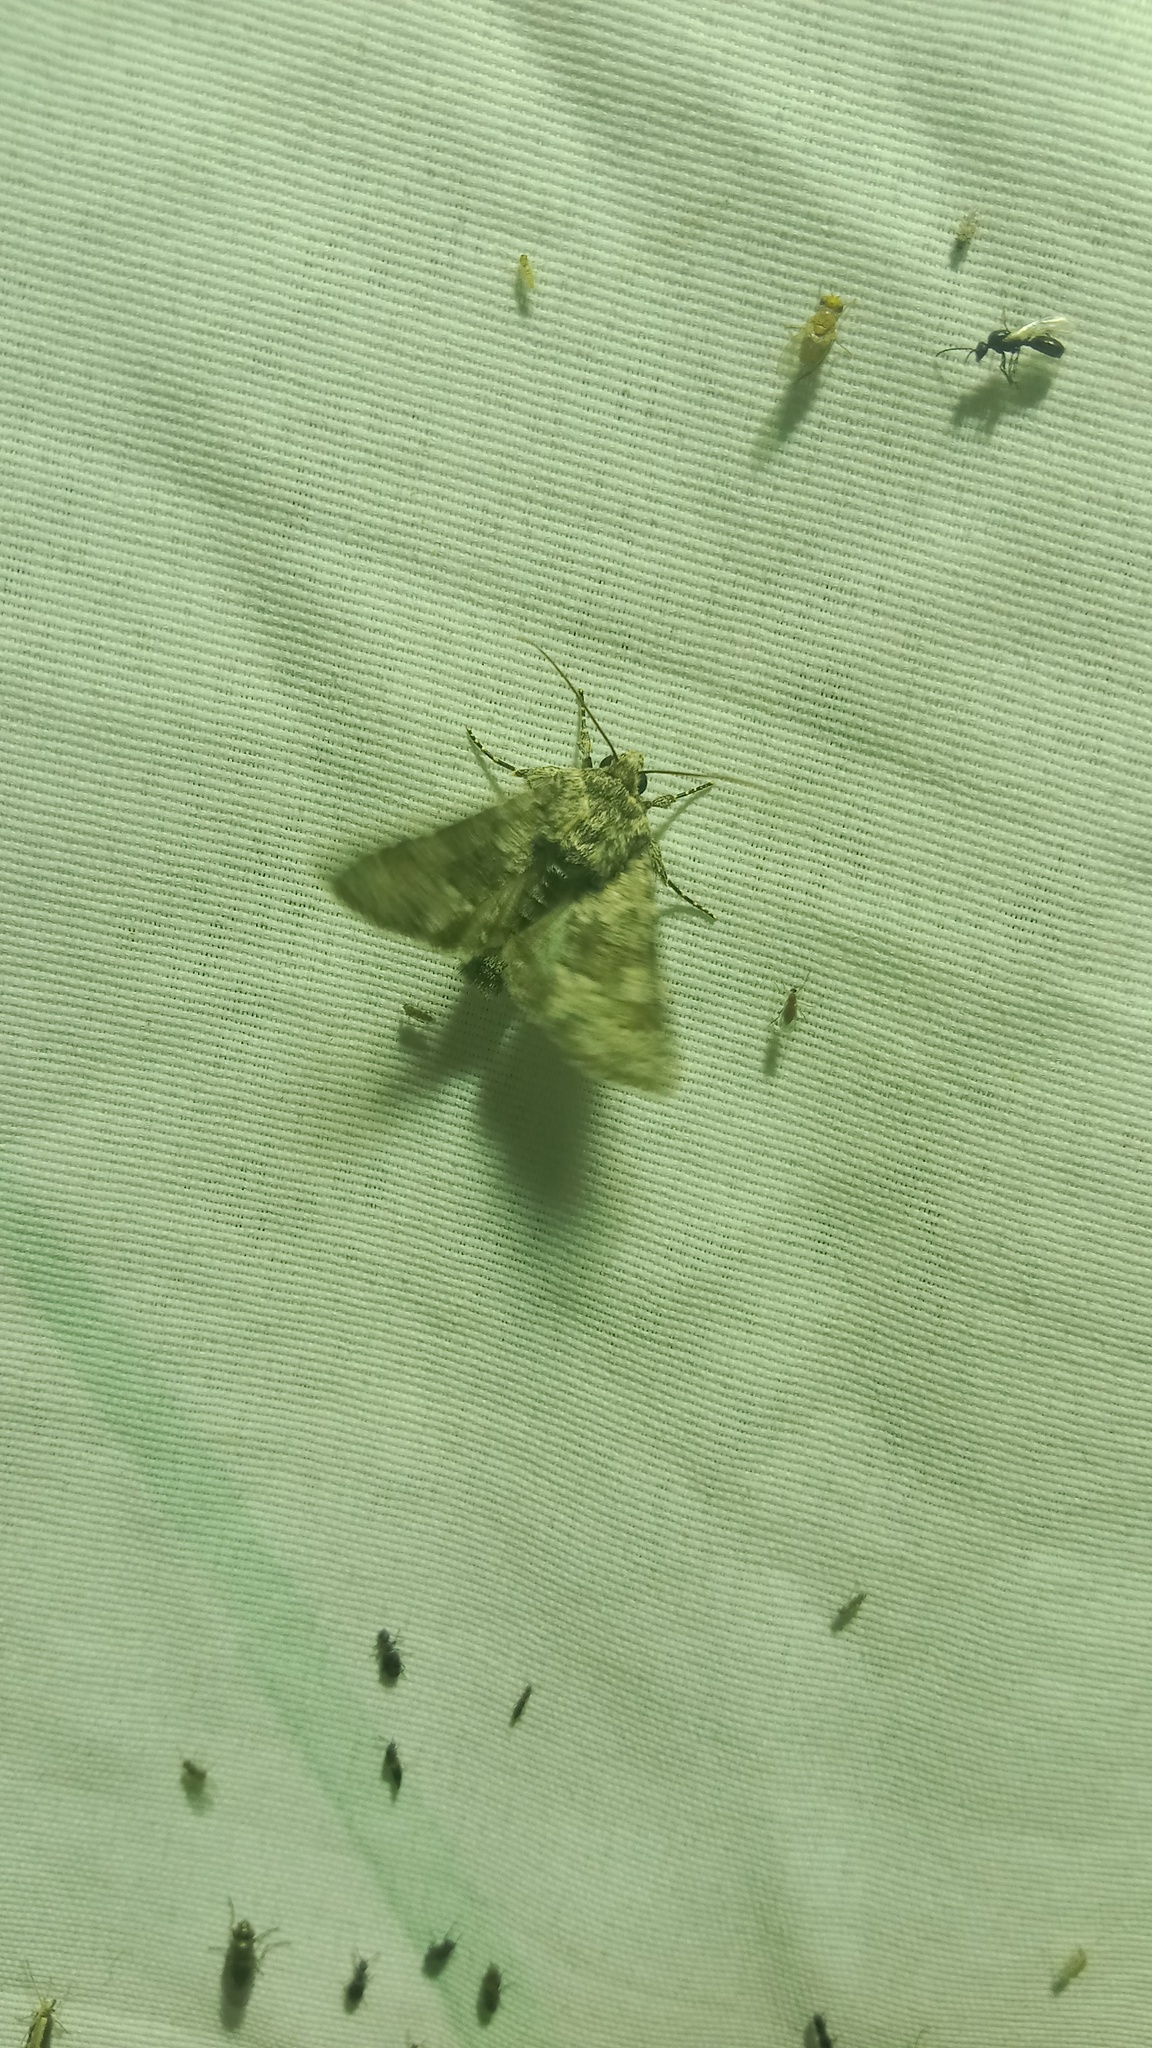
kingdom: Animalia
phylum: Arthropoda
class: Insecta
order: Lepidoptera
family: Noctuidae
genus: Hecatera
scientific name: Hecatera dysodea
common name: Small ranunculus
